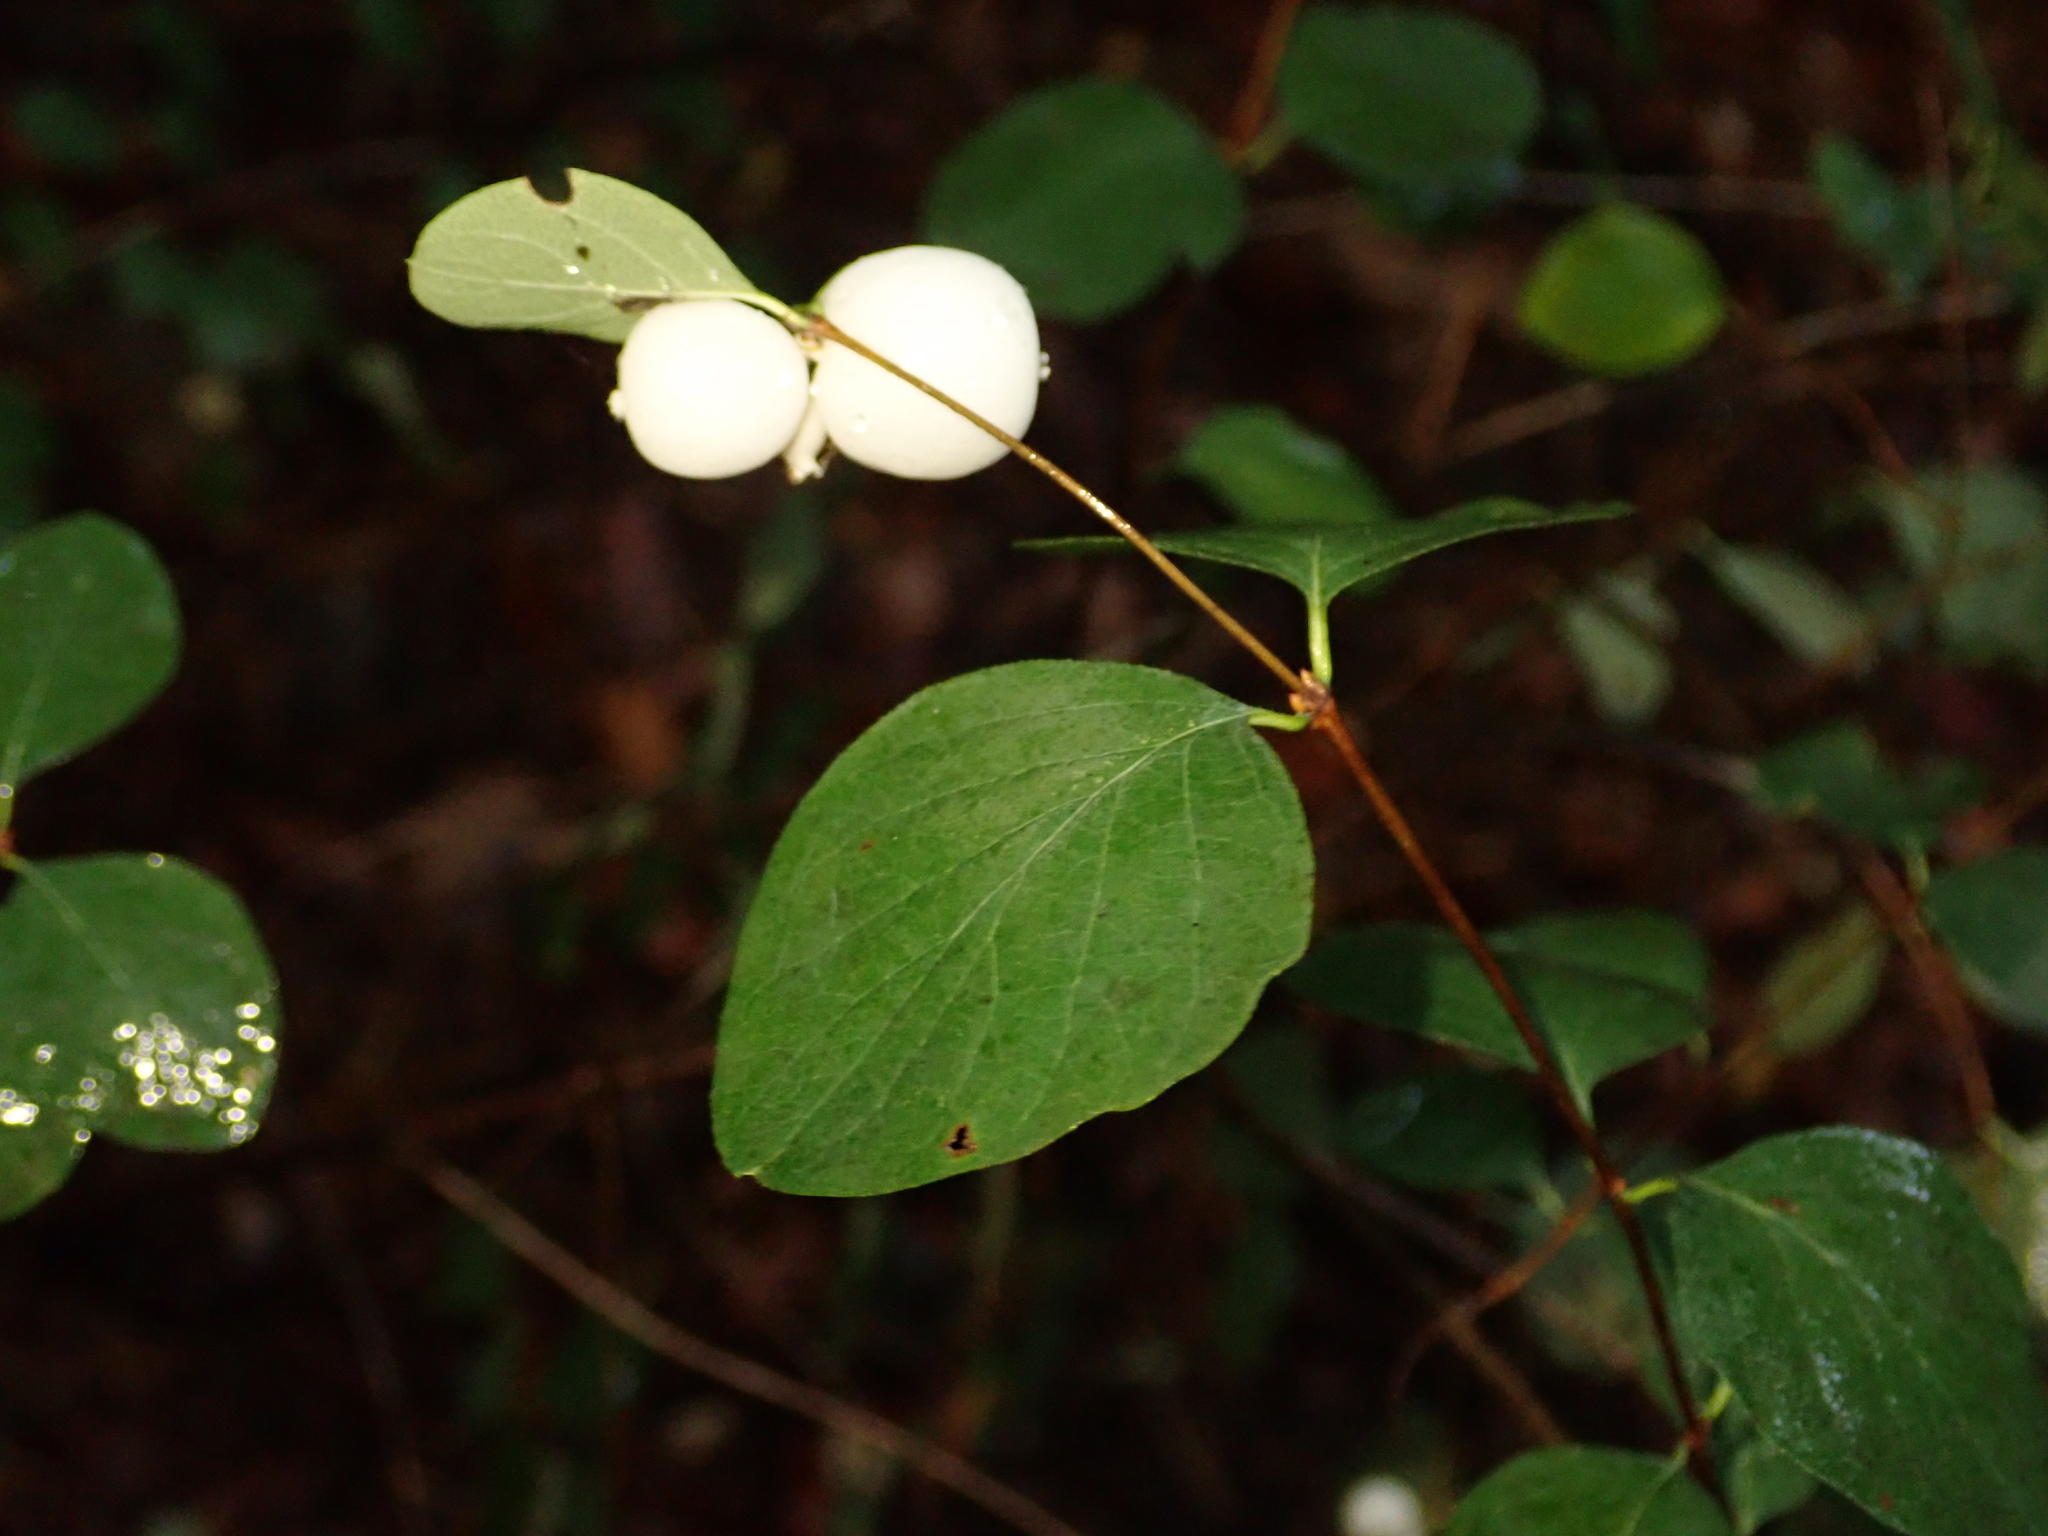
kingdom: Plantae
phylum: Tracheophyta
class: Magnoliopsida
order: Dipsacales
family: Caprifoliaceae
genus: Symphoricarpos
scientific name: Symphoricarpos albus
